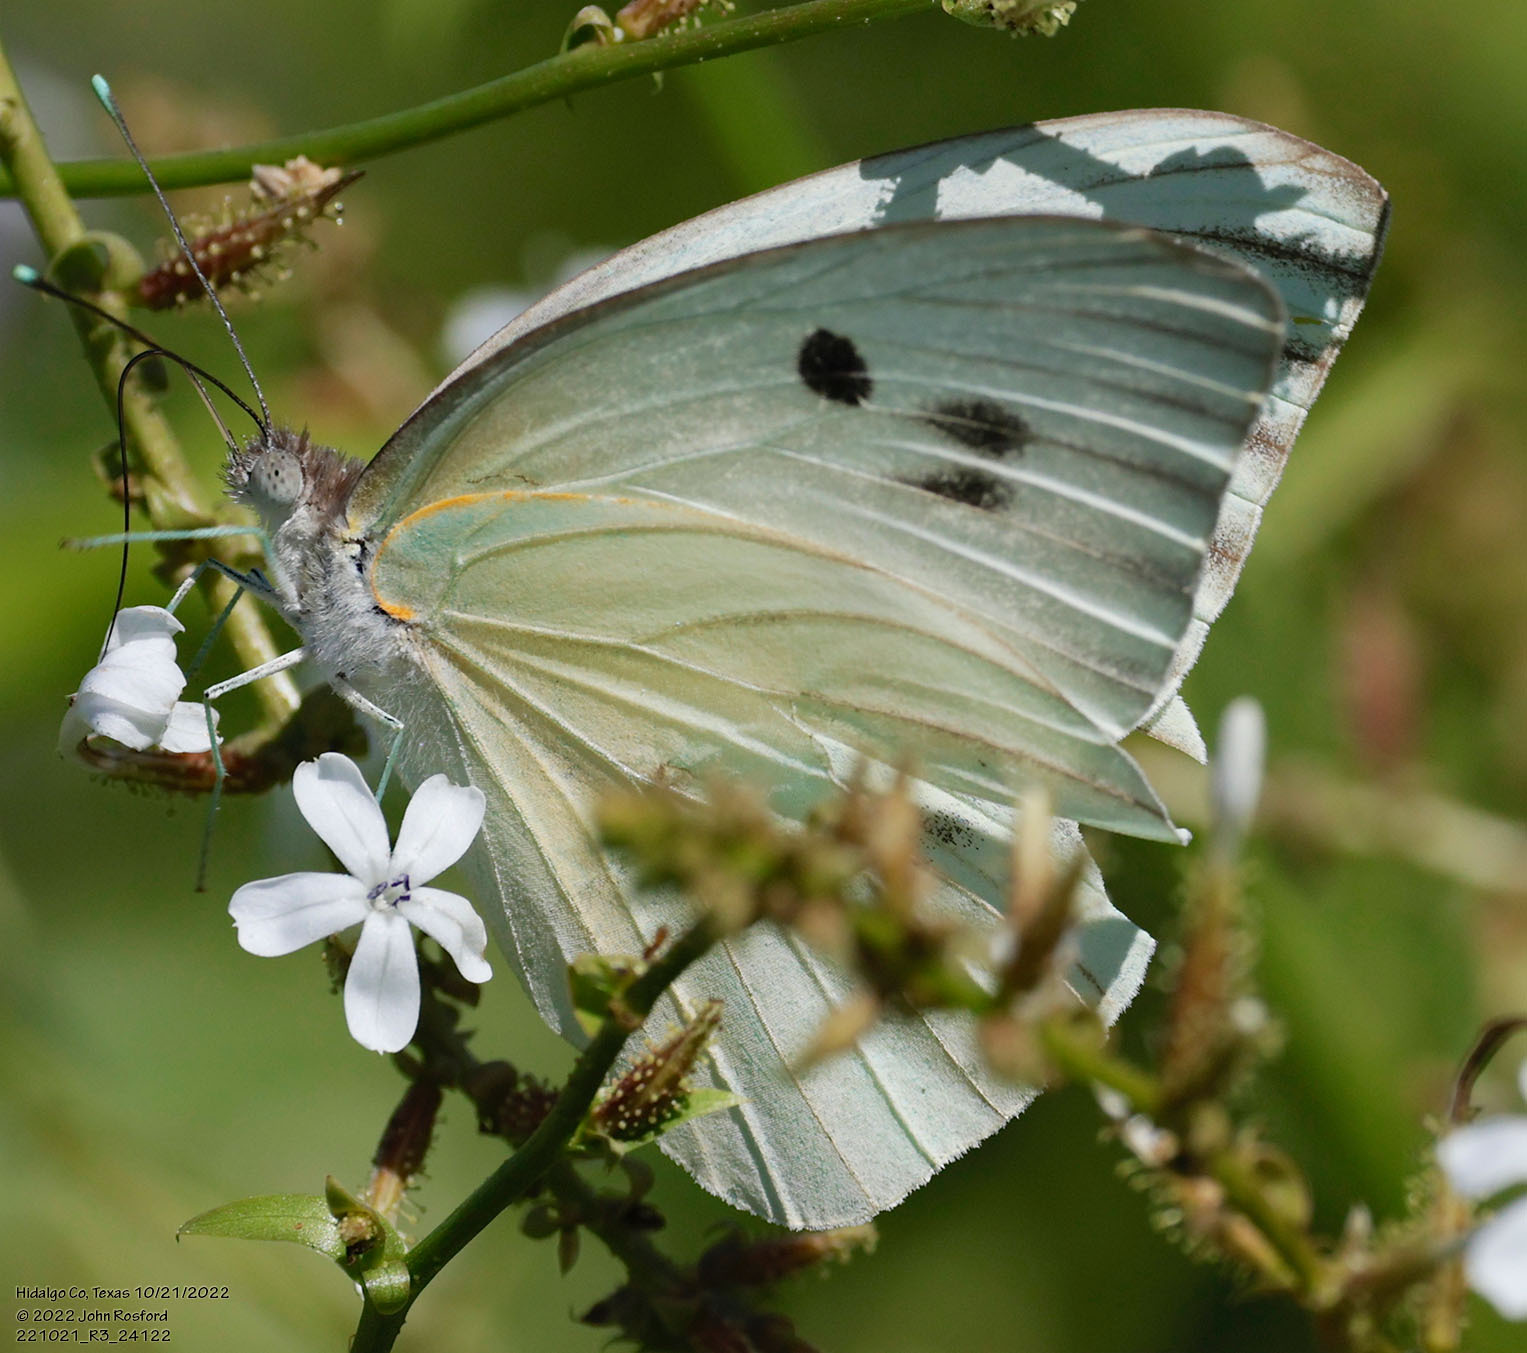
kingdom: Animalia
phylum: Arthropoda
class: Insecta
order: Lepidoptera
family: Pieridae
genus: Ganyra
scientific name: Ganyra josephina
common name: Giant white
